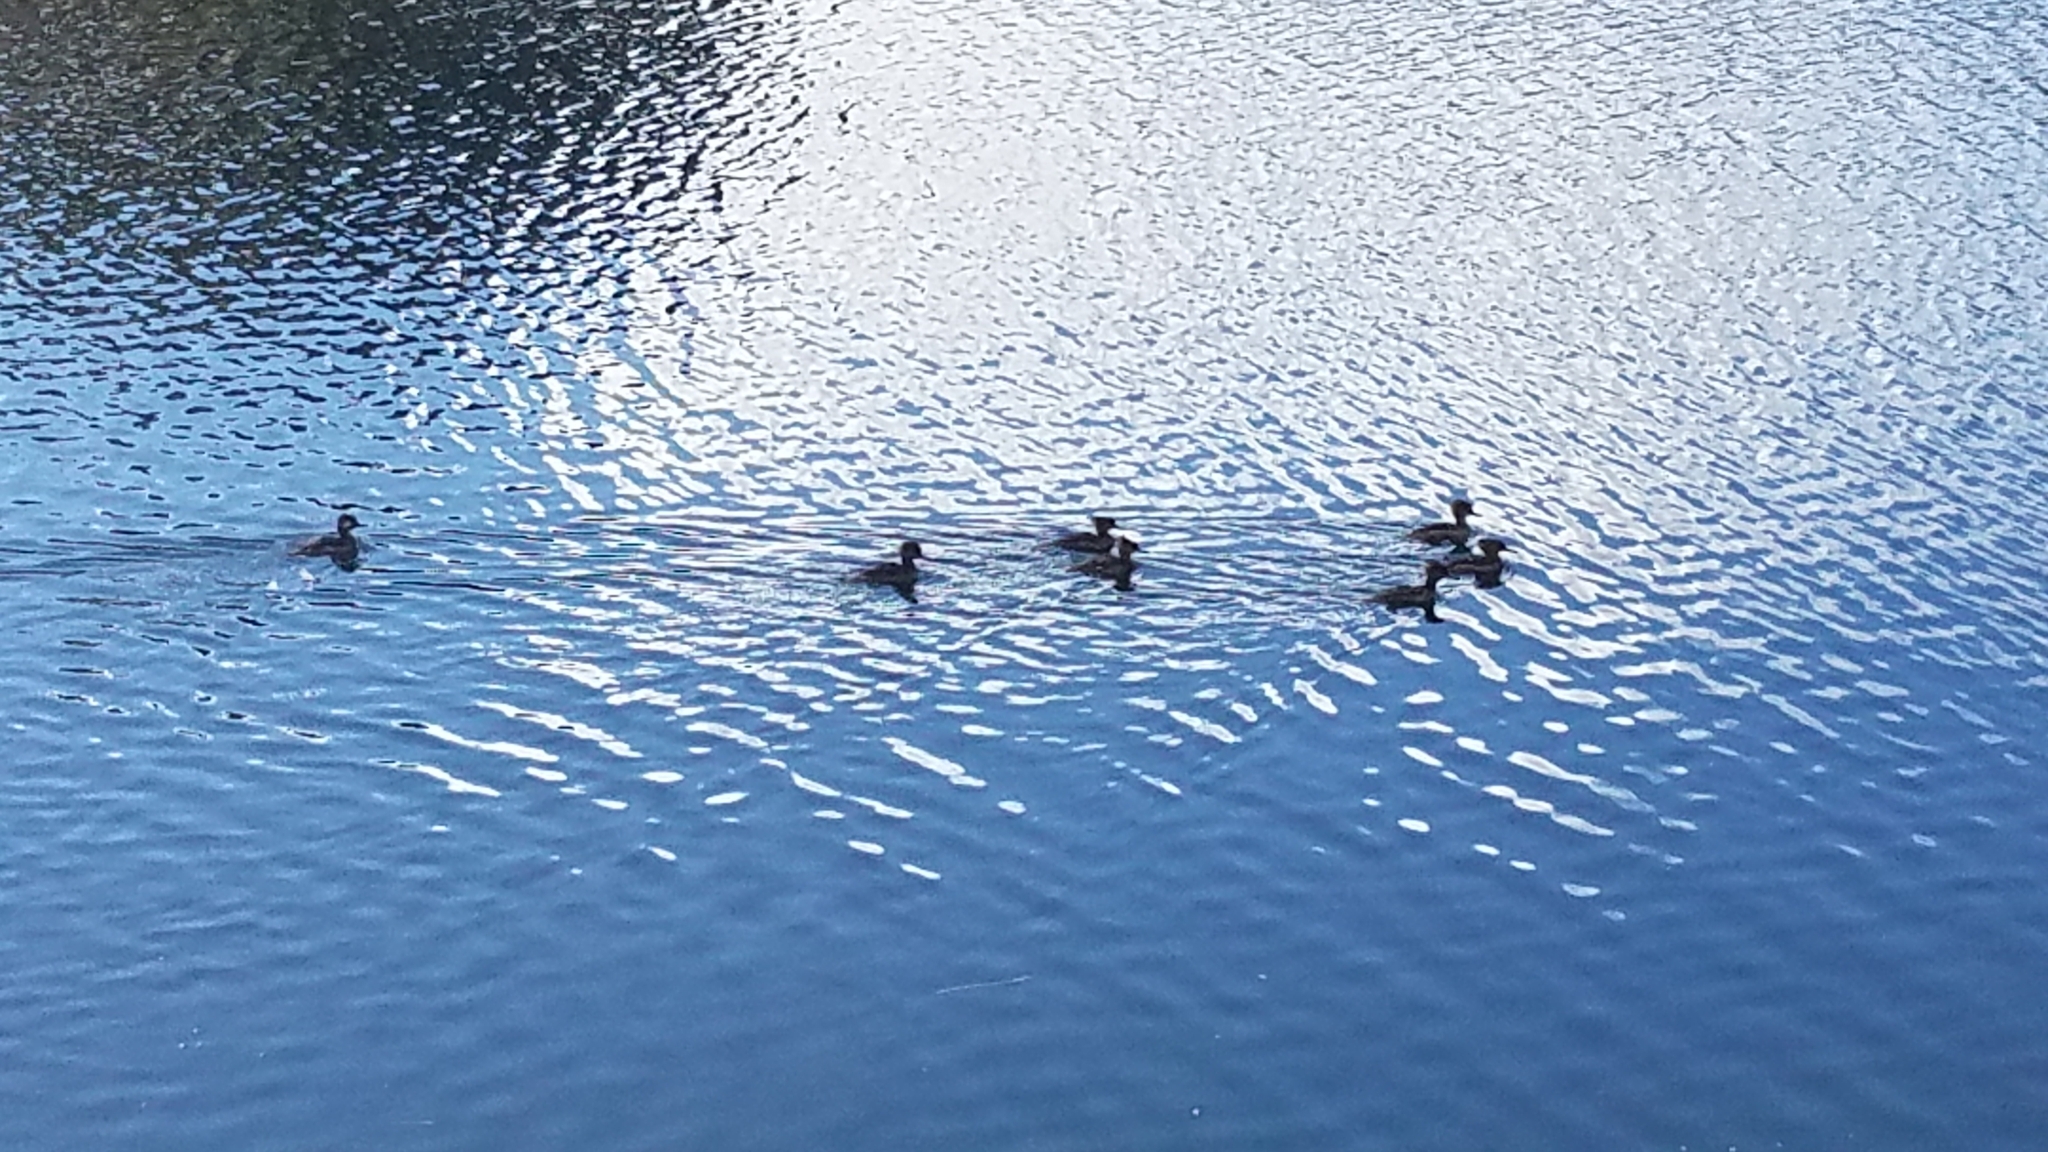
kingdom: Animalia
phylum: Chordata
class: Aves
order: Anseriformes
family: Anatidae
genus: Lophodytes
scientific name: Lophodytes cucullatus
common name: Hooded merganser
